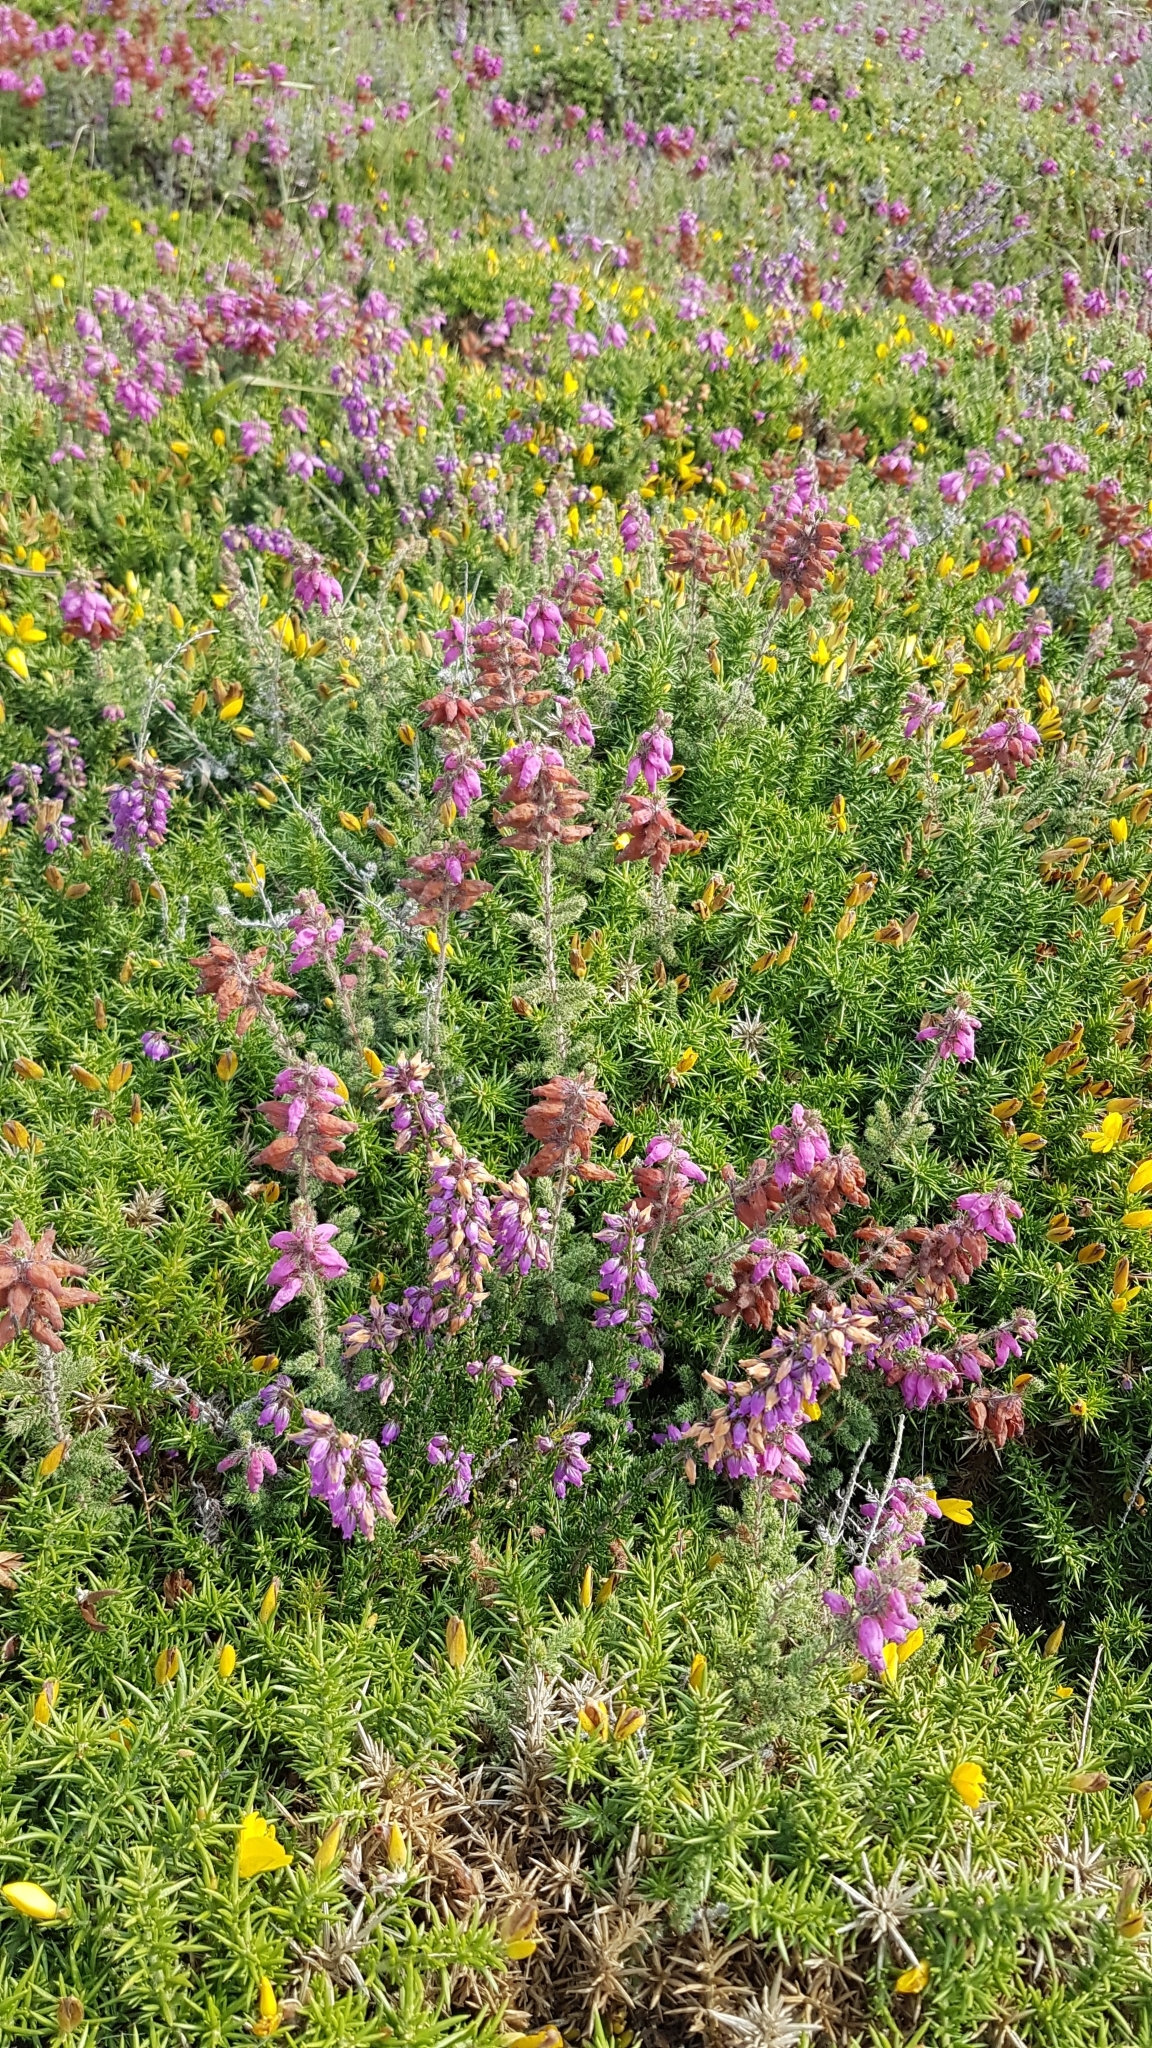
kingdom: Plantae
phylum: Tracheophyta
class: Magnoliopsida
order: Ericales
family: Ericaceae
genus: Erica
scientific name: Erica ciliaris
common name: Dorset heath
